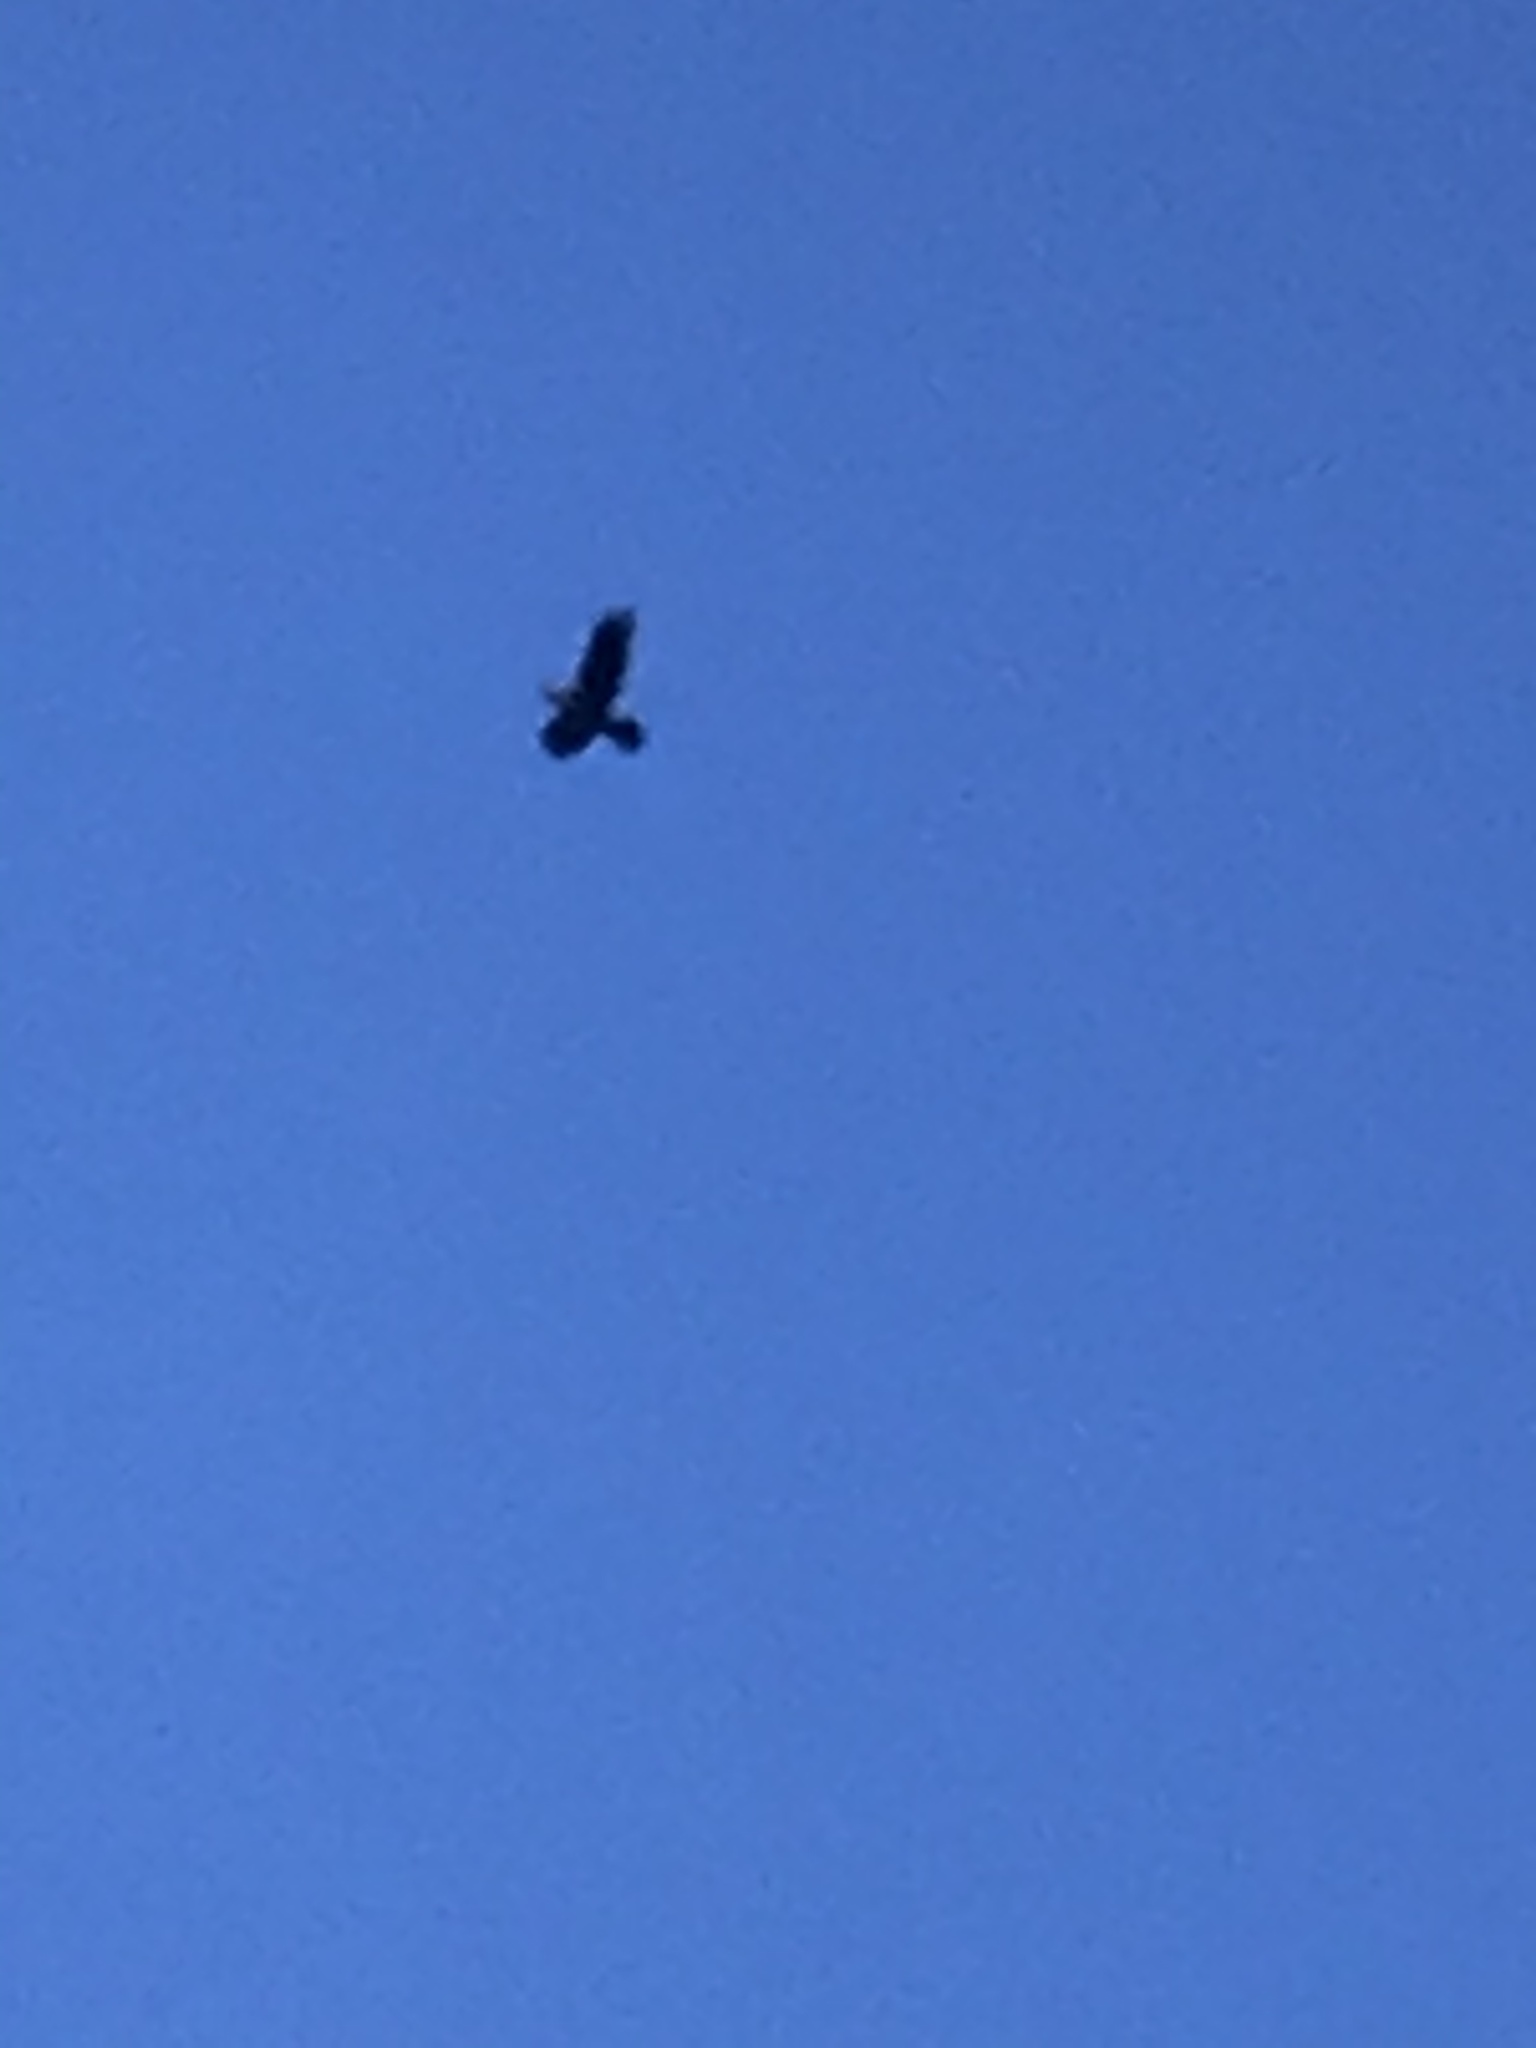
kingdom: Animalia
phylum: Chordata
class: Aves
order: Passeriformes
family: Corvidae
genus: Corvus
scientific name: Corvus corax
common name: Common raven
